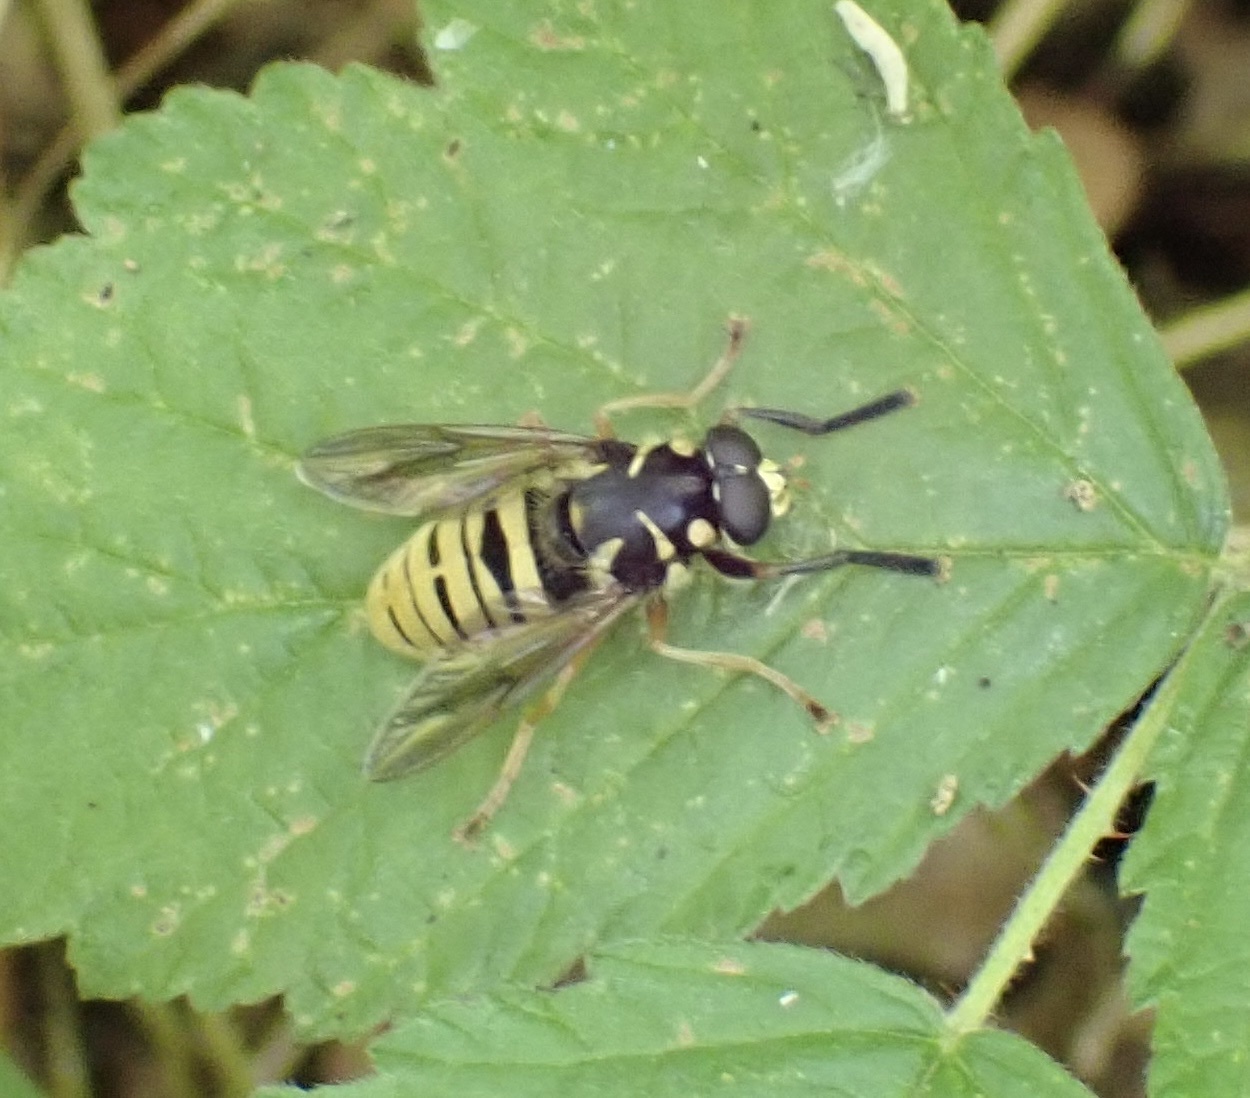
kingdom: Animalia
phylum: Arthropoda
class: Insecta
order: Diptera
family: Syrphidae
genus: Temnostoma
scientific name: Temnostoma vespiforme
